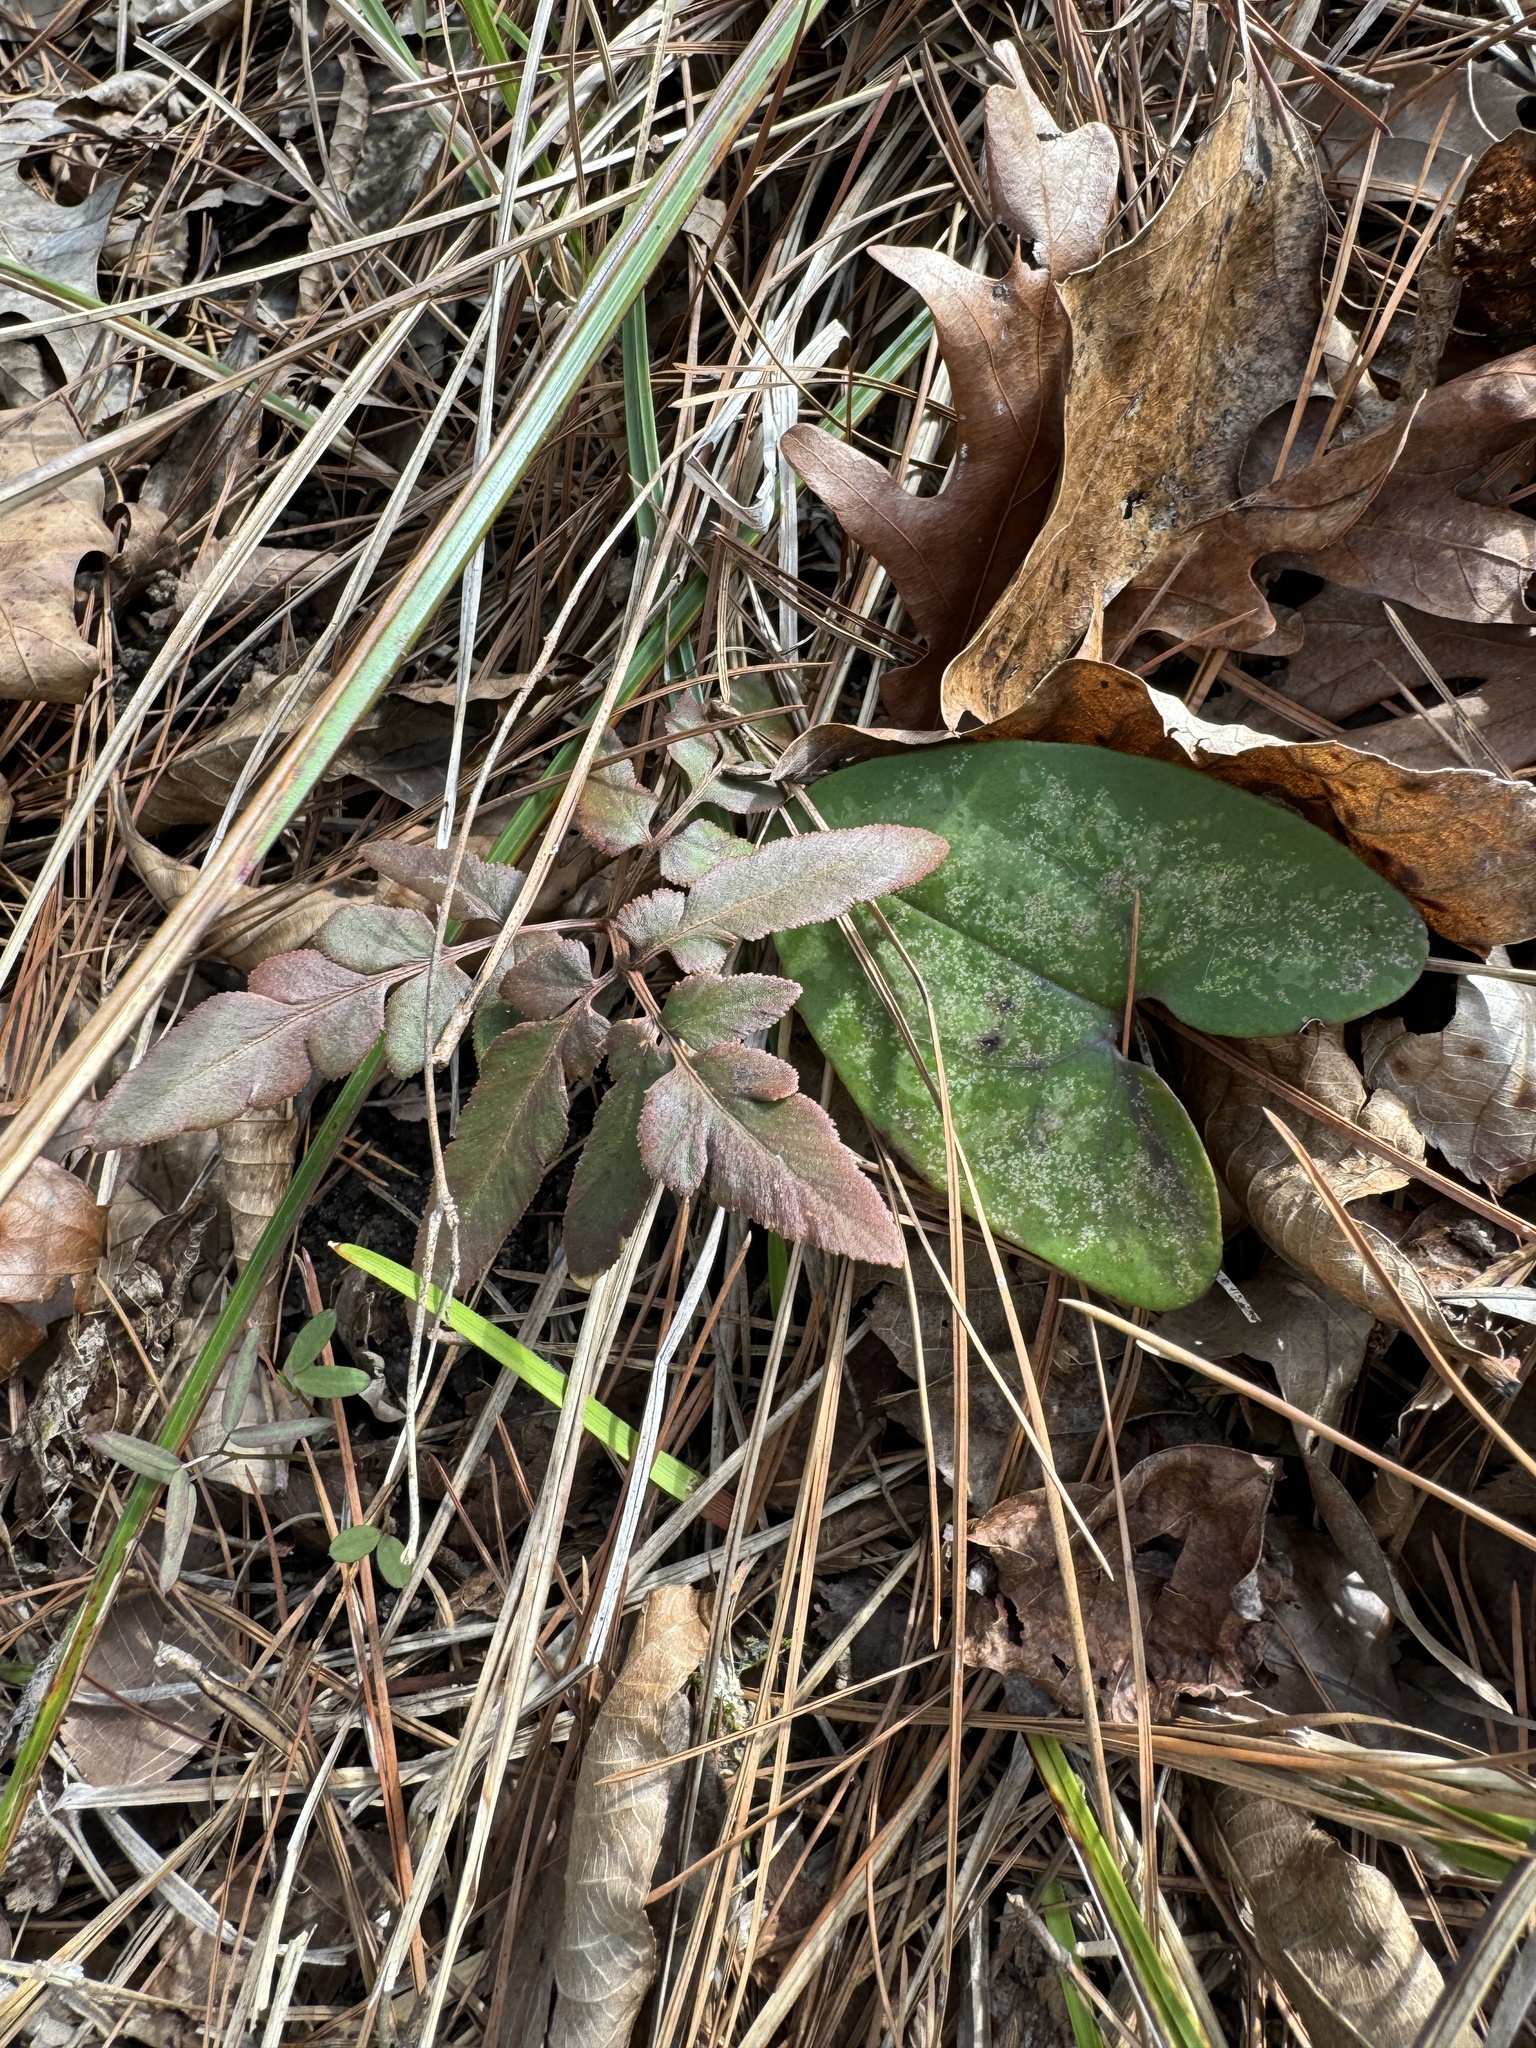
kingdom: Plantae
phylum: Tracheophyta
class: Polypodiopsida
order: Ophioglossales
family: Ophioglossaceae
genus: Sceptridium
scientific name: Sceptridium dissectum
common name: Cut-leaved grapefern
